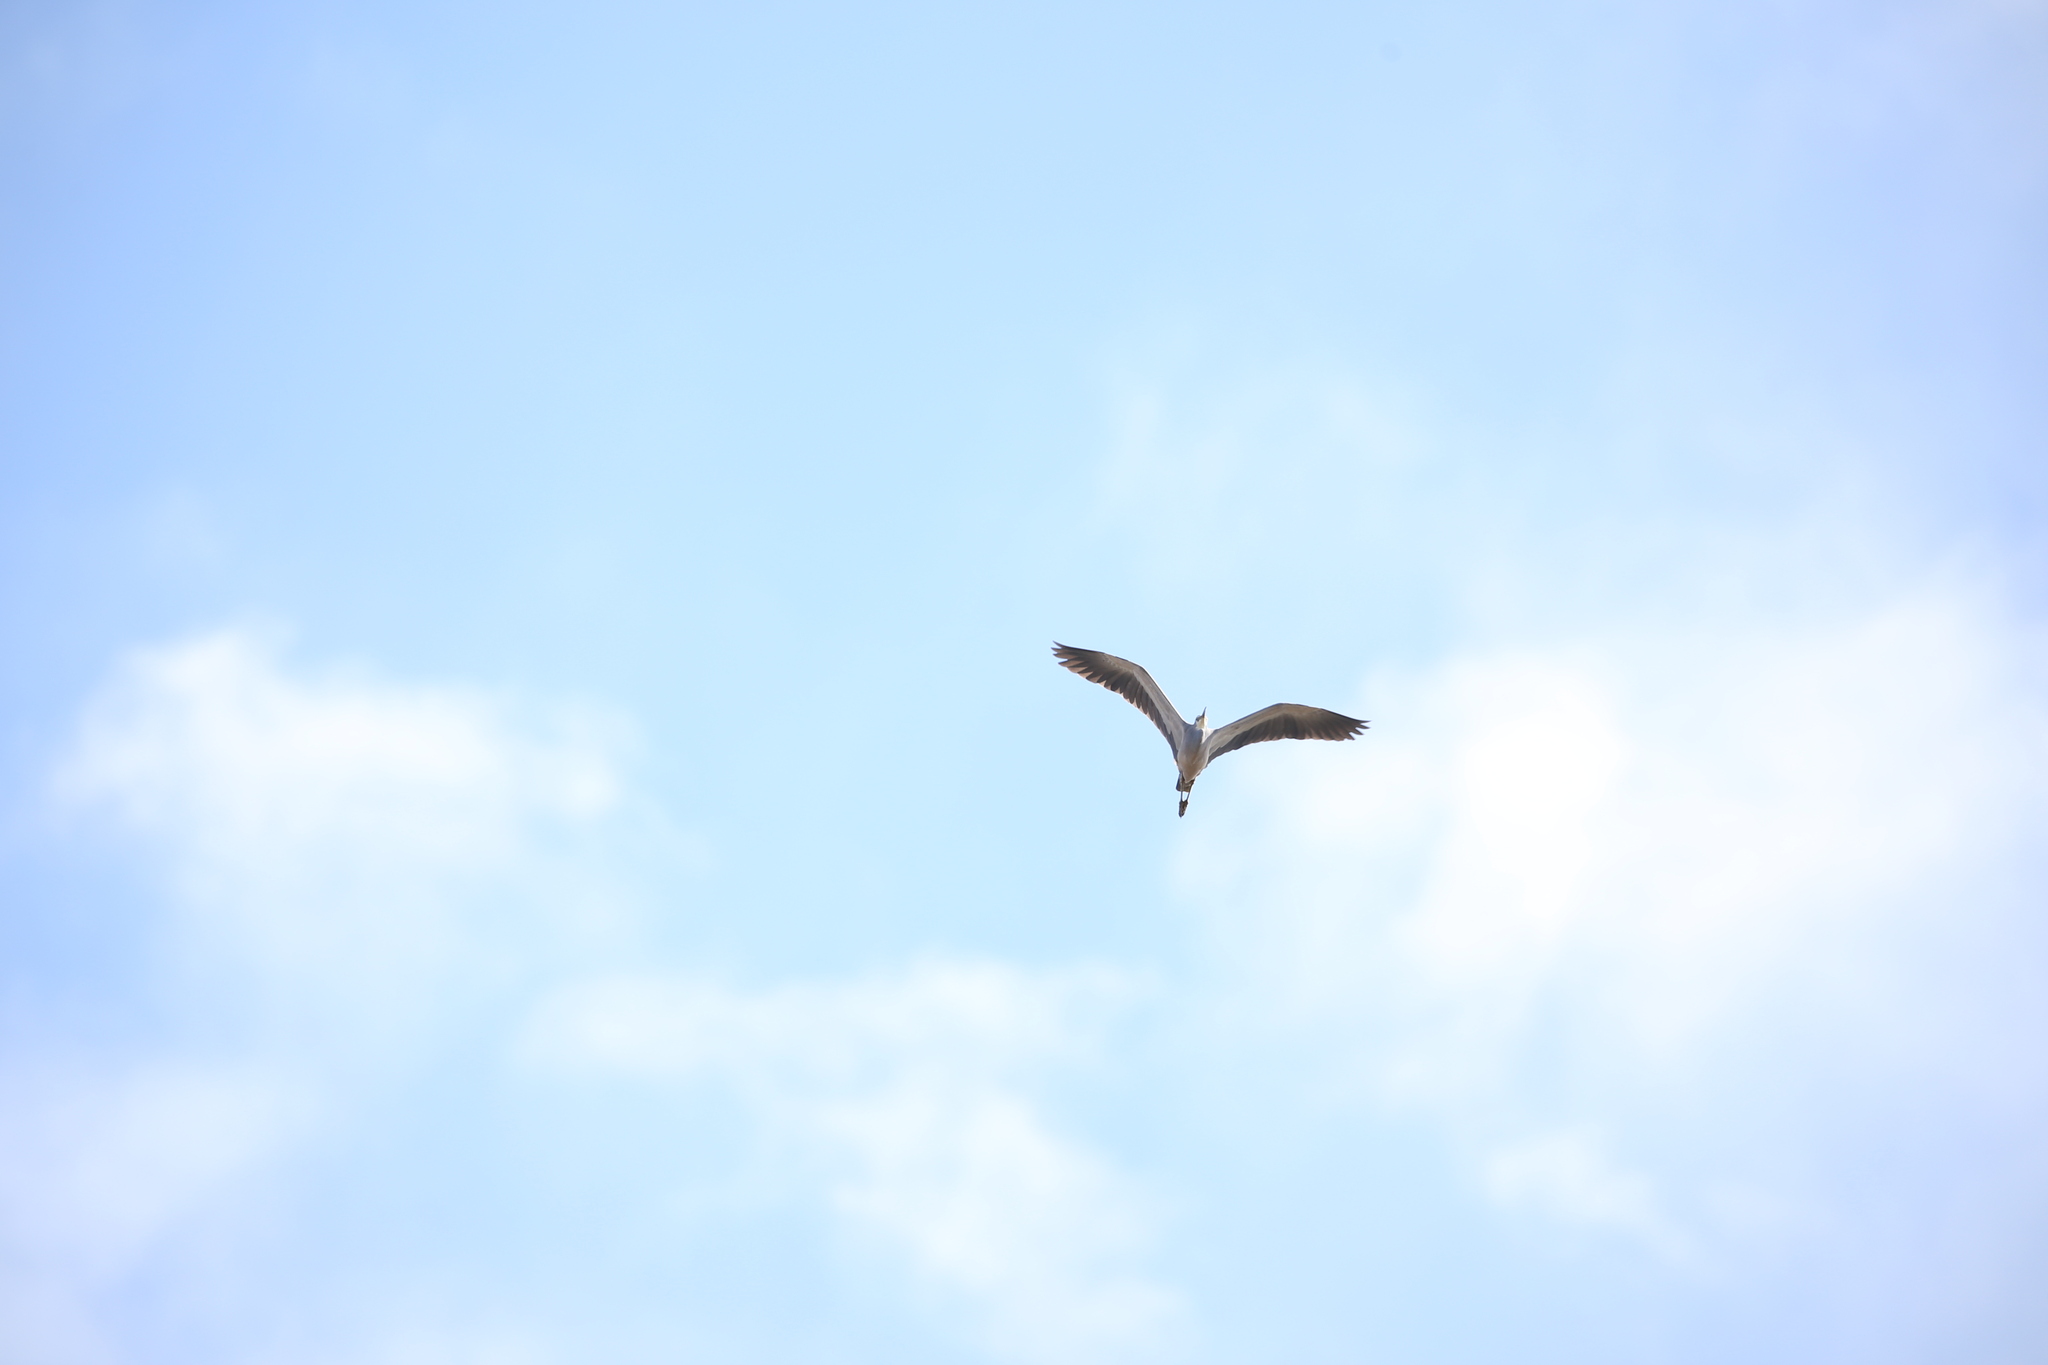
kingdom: Animalia
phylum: Chordata
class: Aves
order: Pelecaniformes
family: Ardeidae
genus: Egretta
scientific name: Egretta novaehollandiae
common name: White-faced heron
